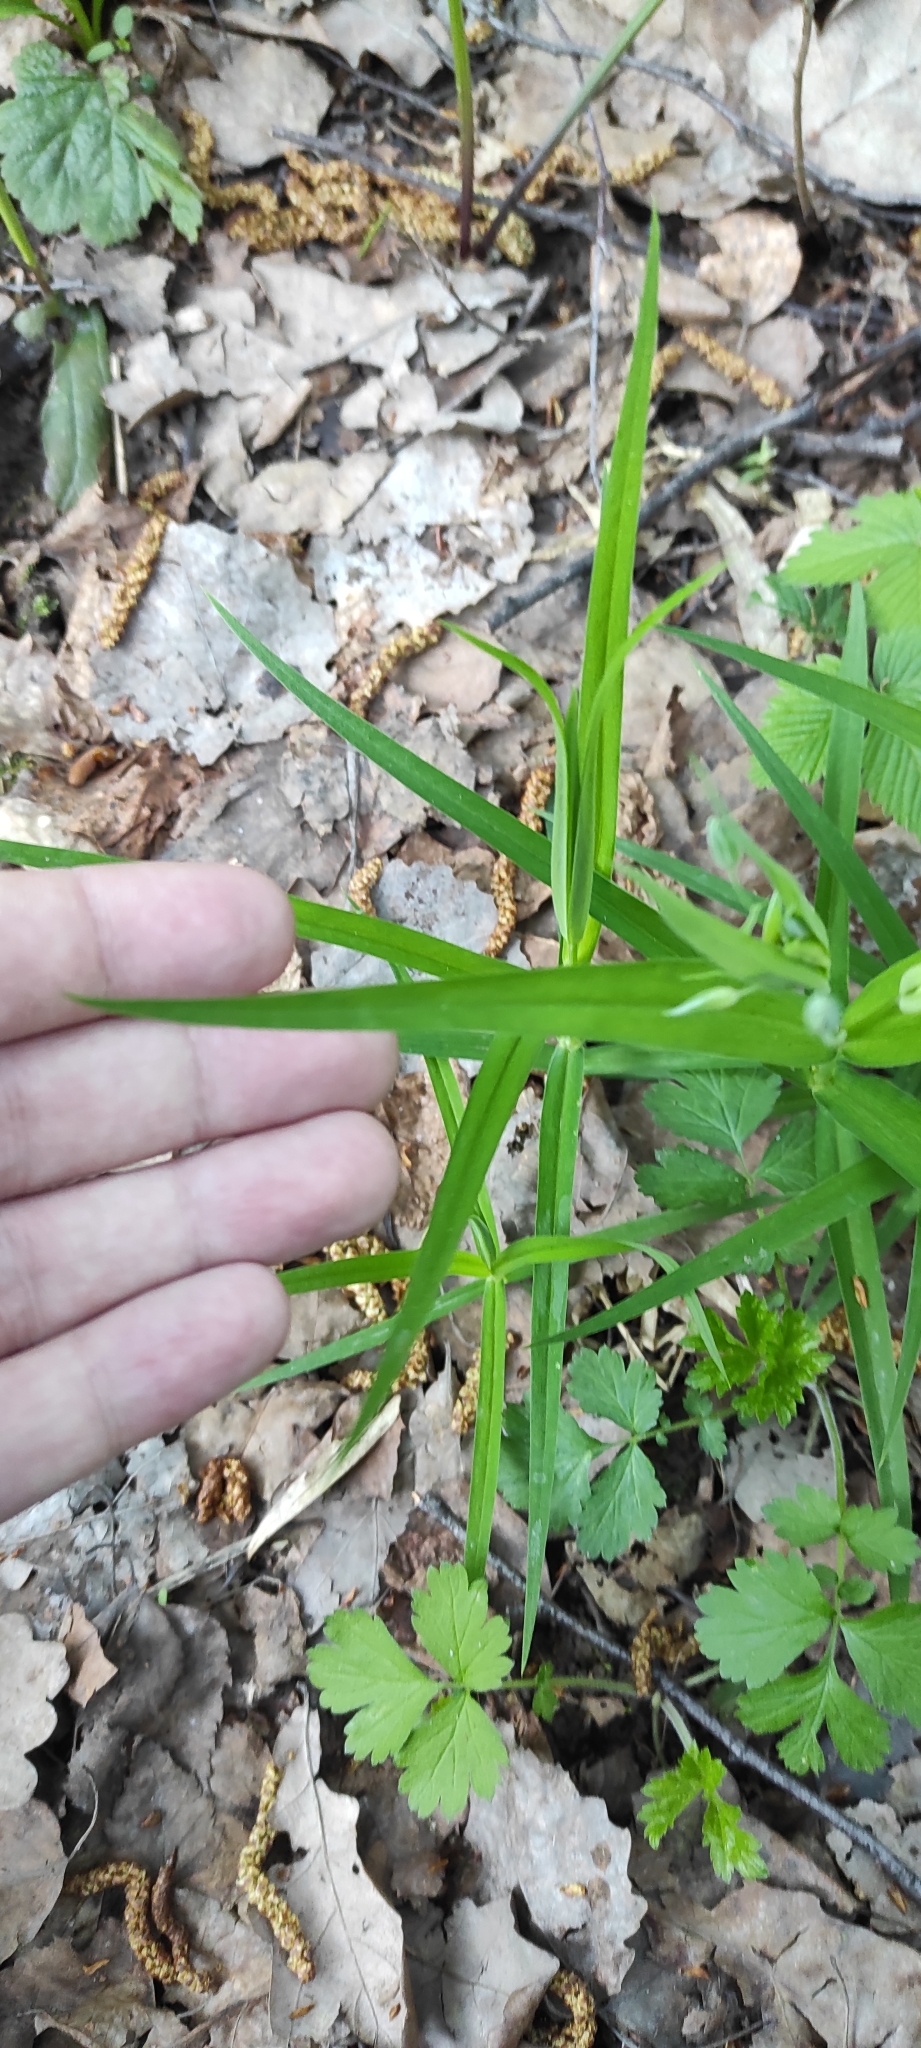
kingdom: Plantae
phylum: Tracheophyta
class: Magnoliopsida
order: Caryophyllales
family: Caryophyllaceae
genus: Rabelera
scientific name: Rabelera holostea
